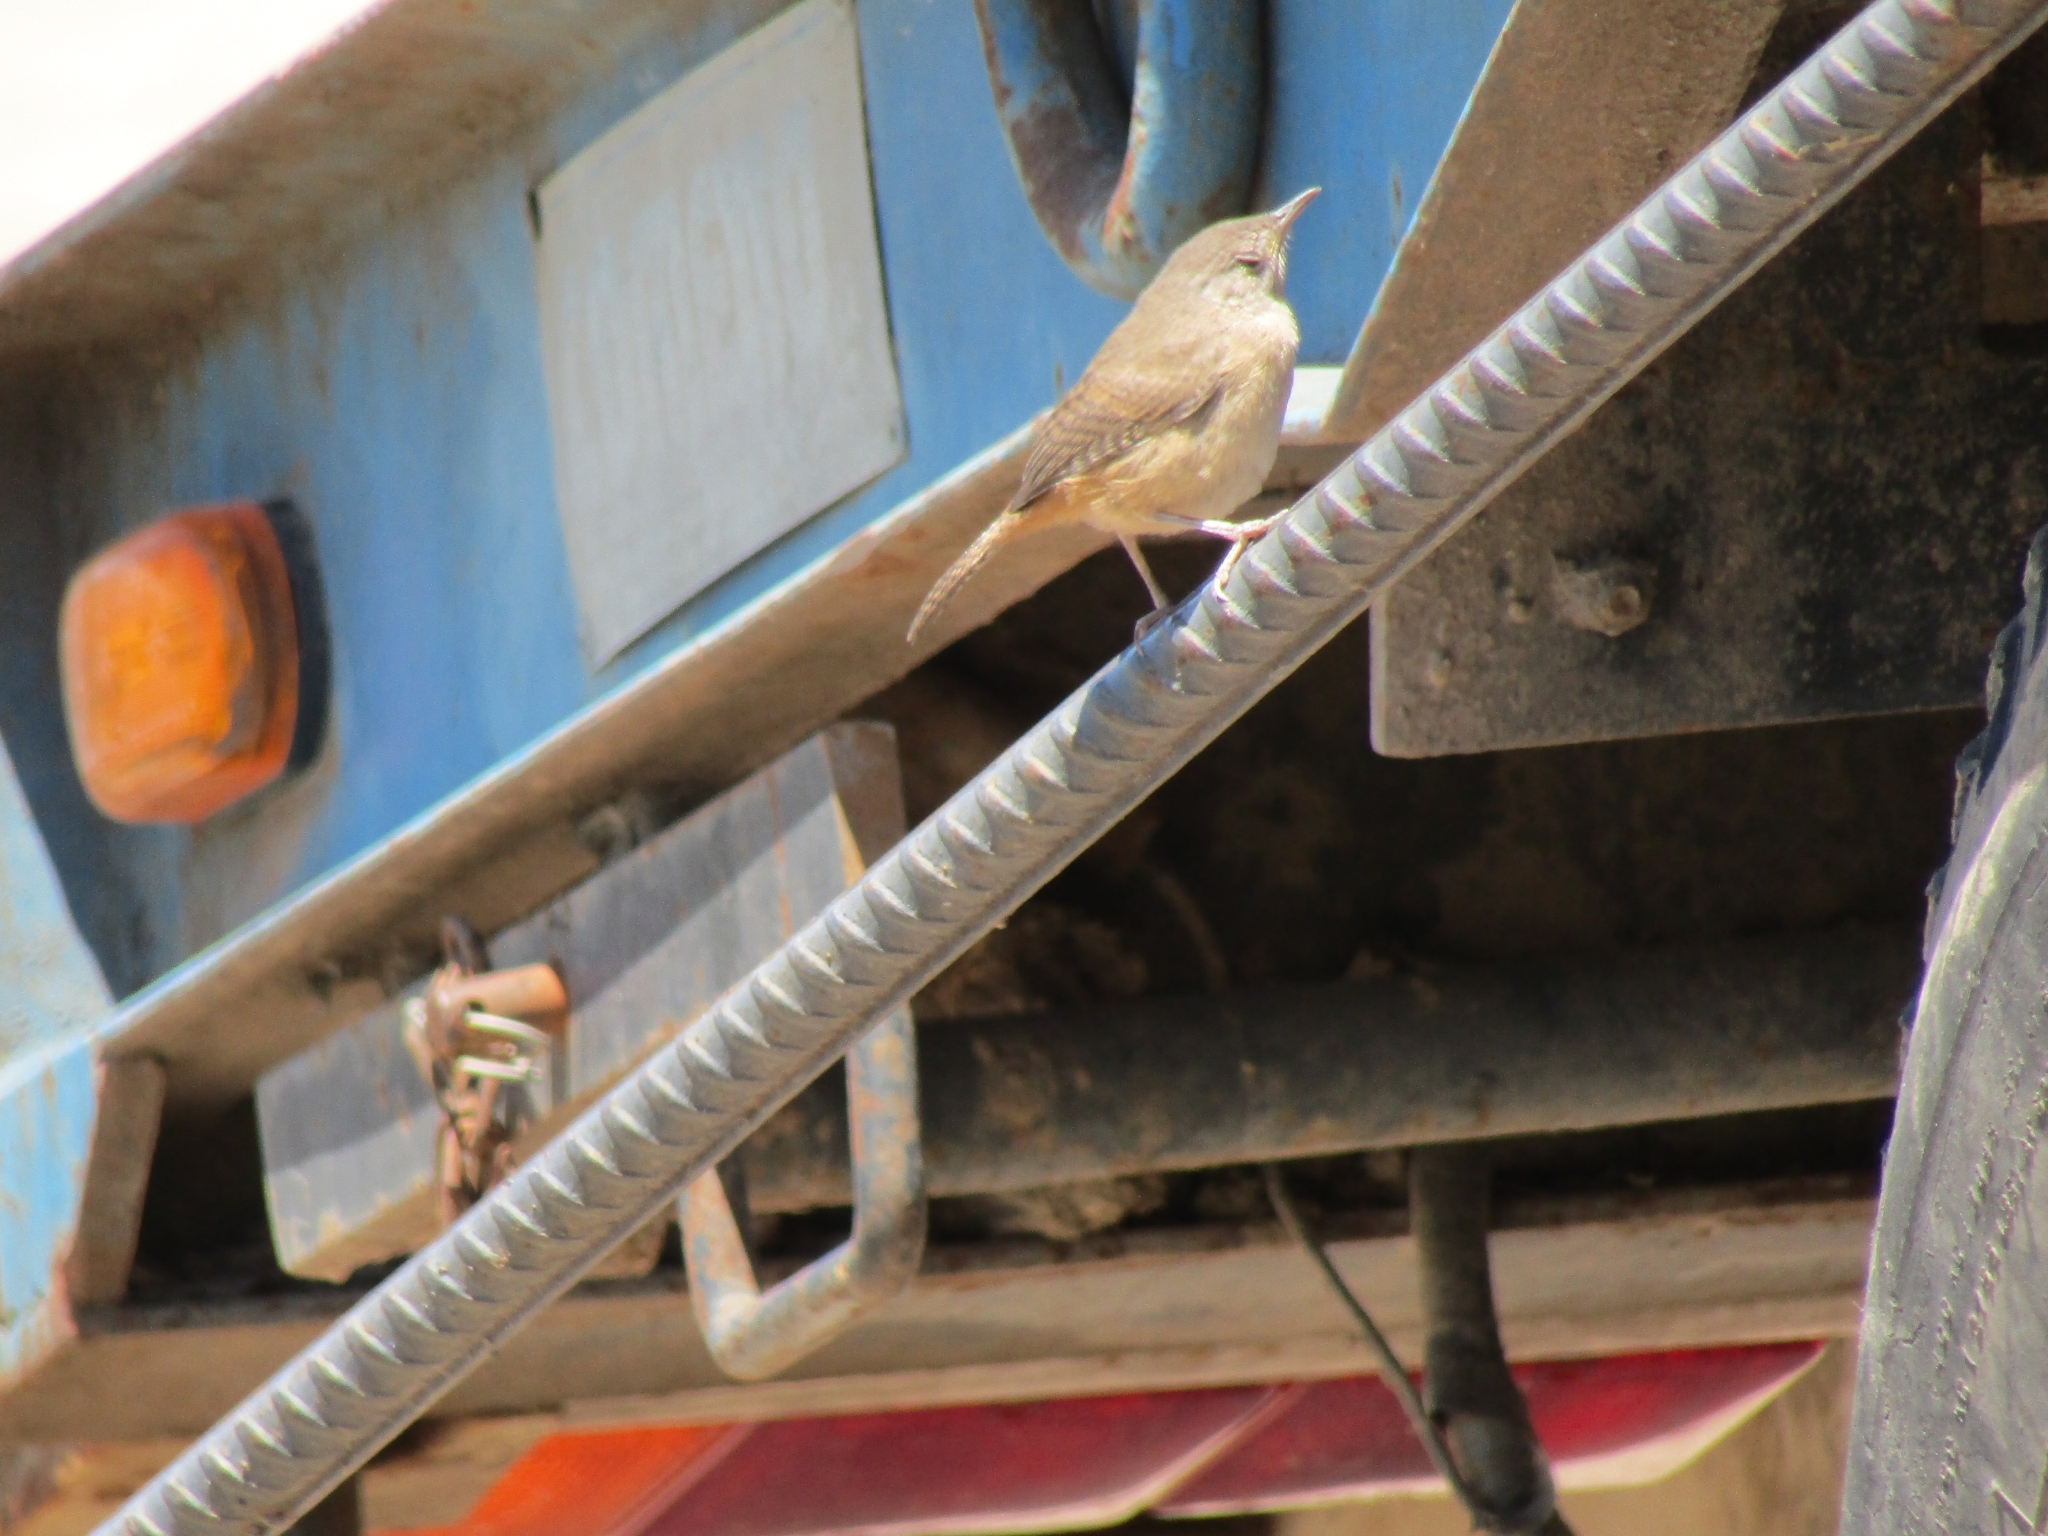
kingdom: Animalia
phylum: Chordata
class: Aves
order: Passeriformes
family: Troglodytidae
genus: Troglodytes
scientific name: Troglodytes aedon
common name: House wren
